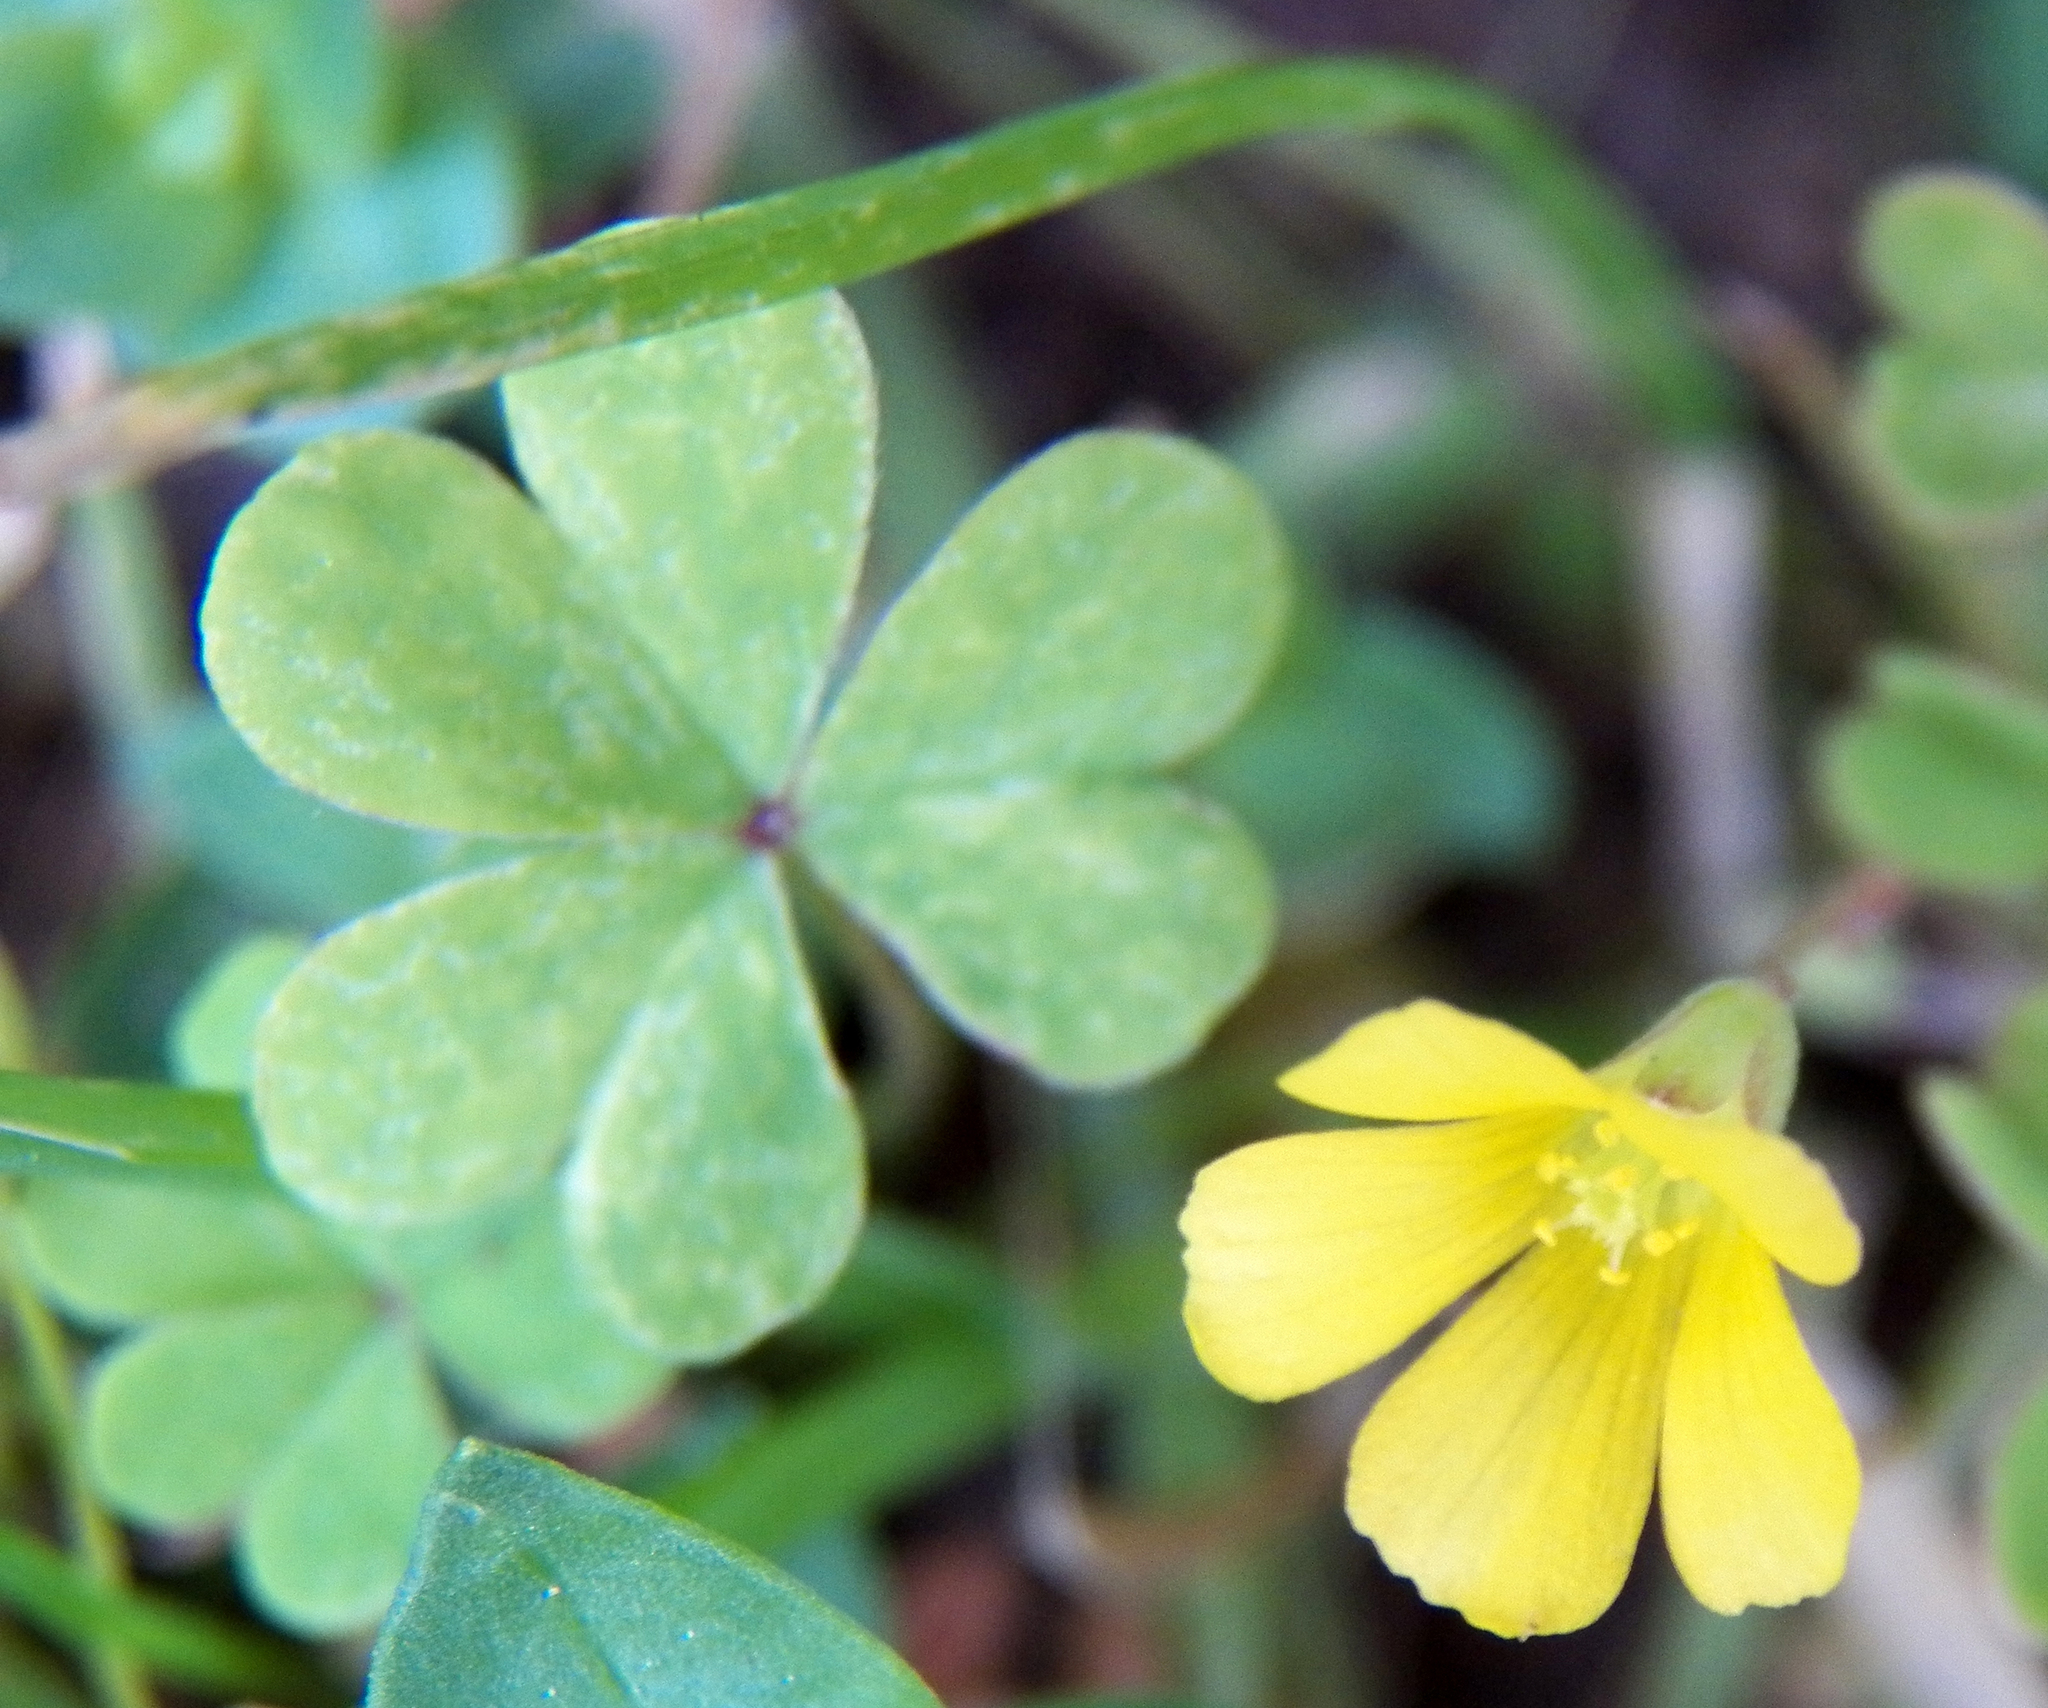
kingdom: Plantae
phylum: Tracheophyta
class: Magnoliopsida
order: Oxalidales
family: Oxalidaceae
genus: Oxalis
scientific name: Oxalis corniculata
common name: Procumbent yellow-sorrel
